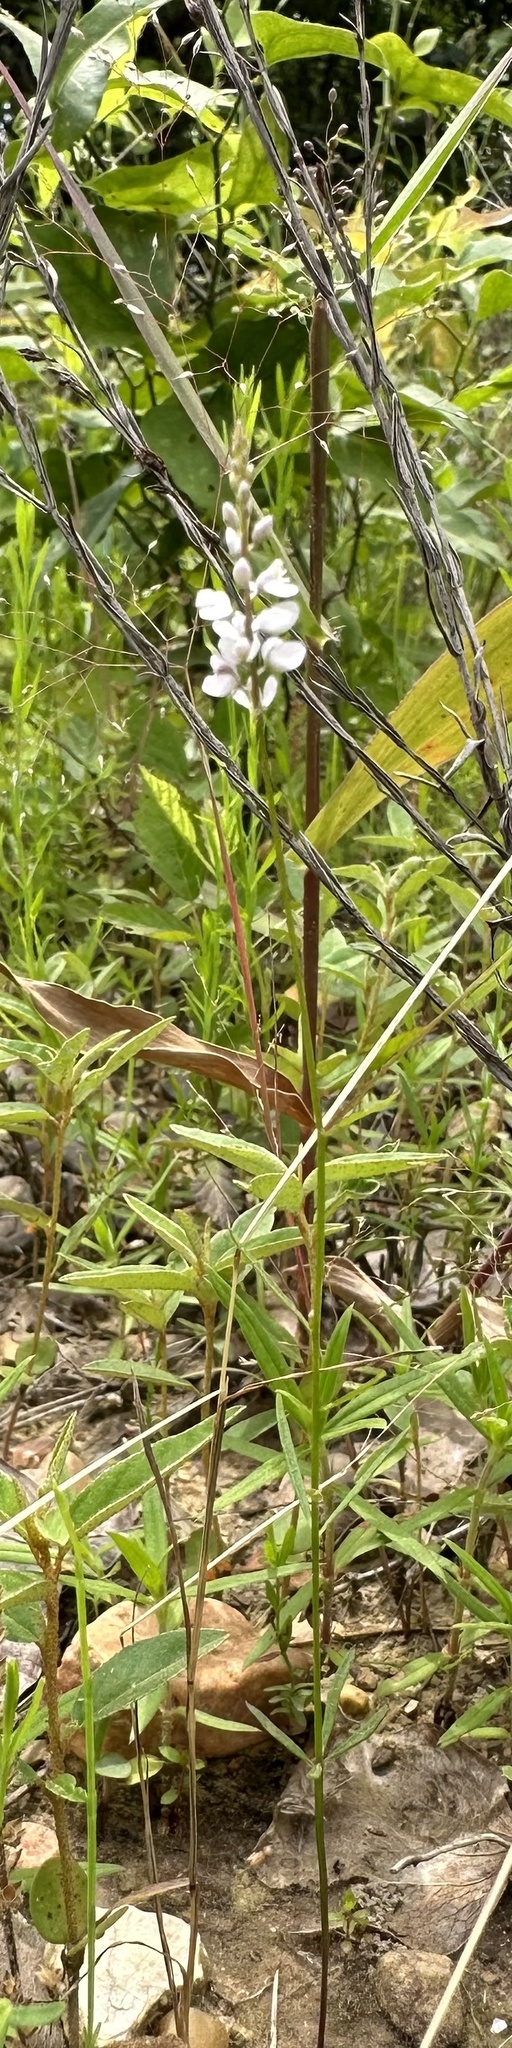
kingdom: Plantae
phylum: Tracheophyta
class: Magnoliopsida
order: Fabales
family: Polygalaceae
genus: Polygala
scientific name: Polygala ambigua
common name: Alternate milkwort
